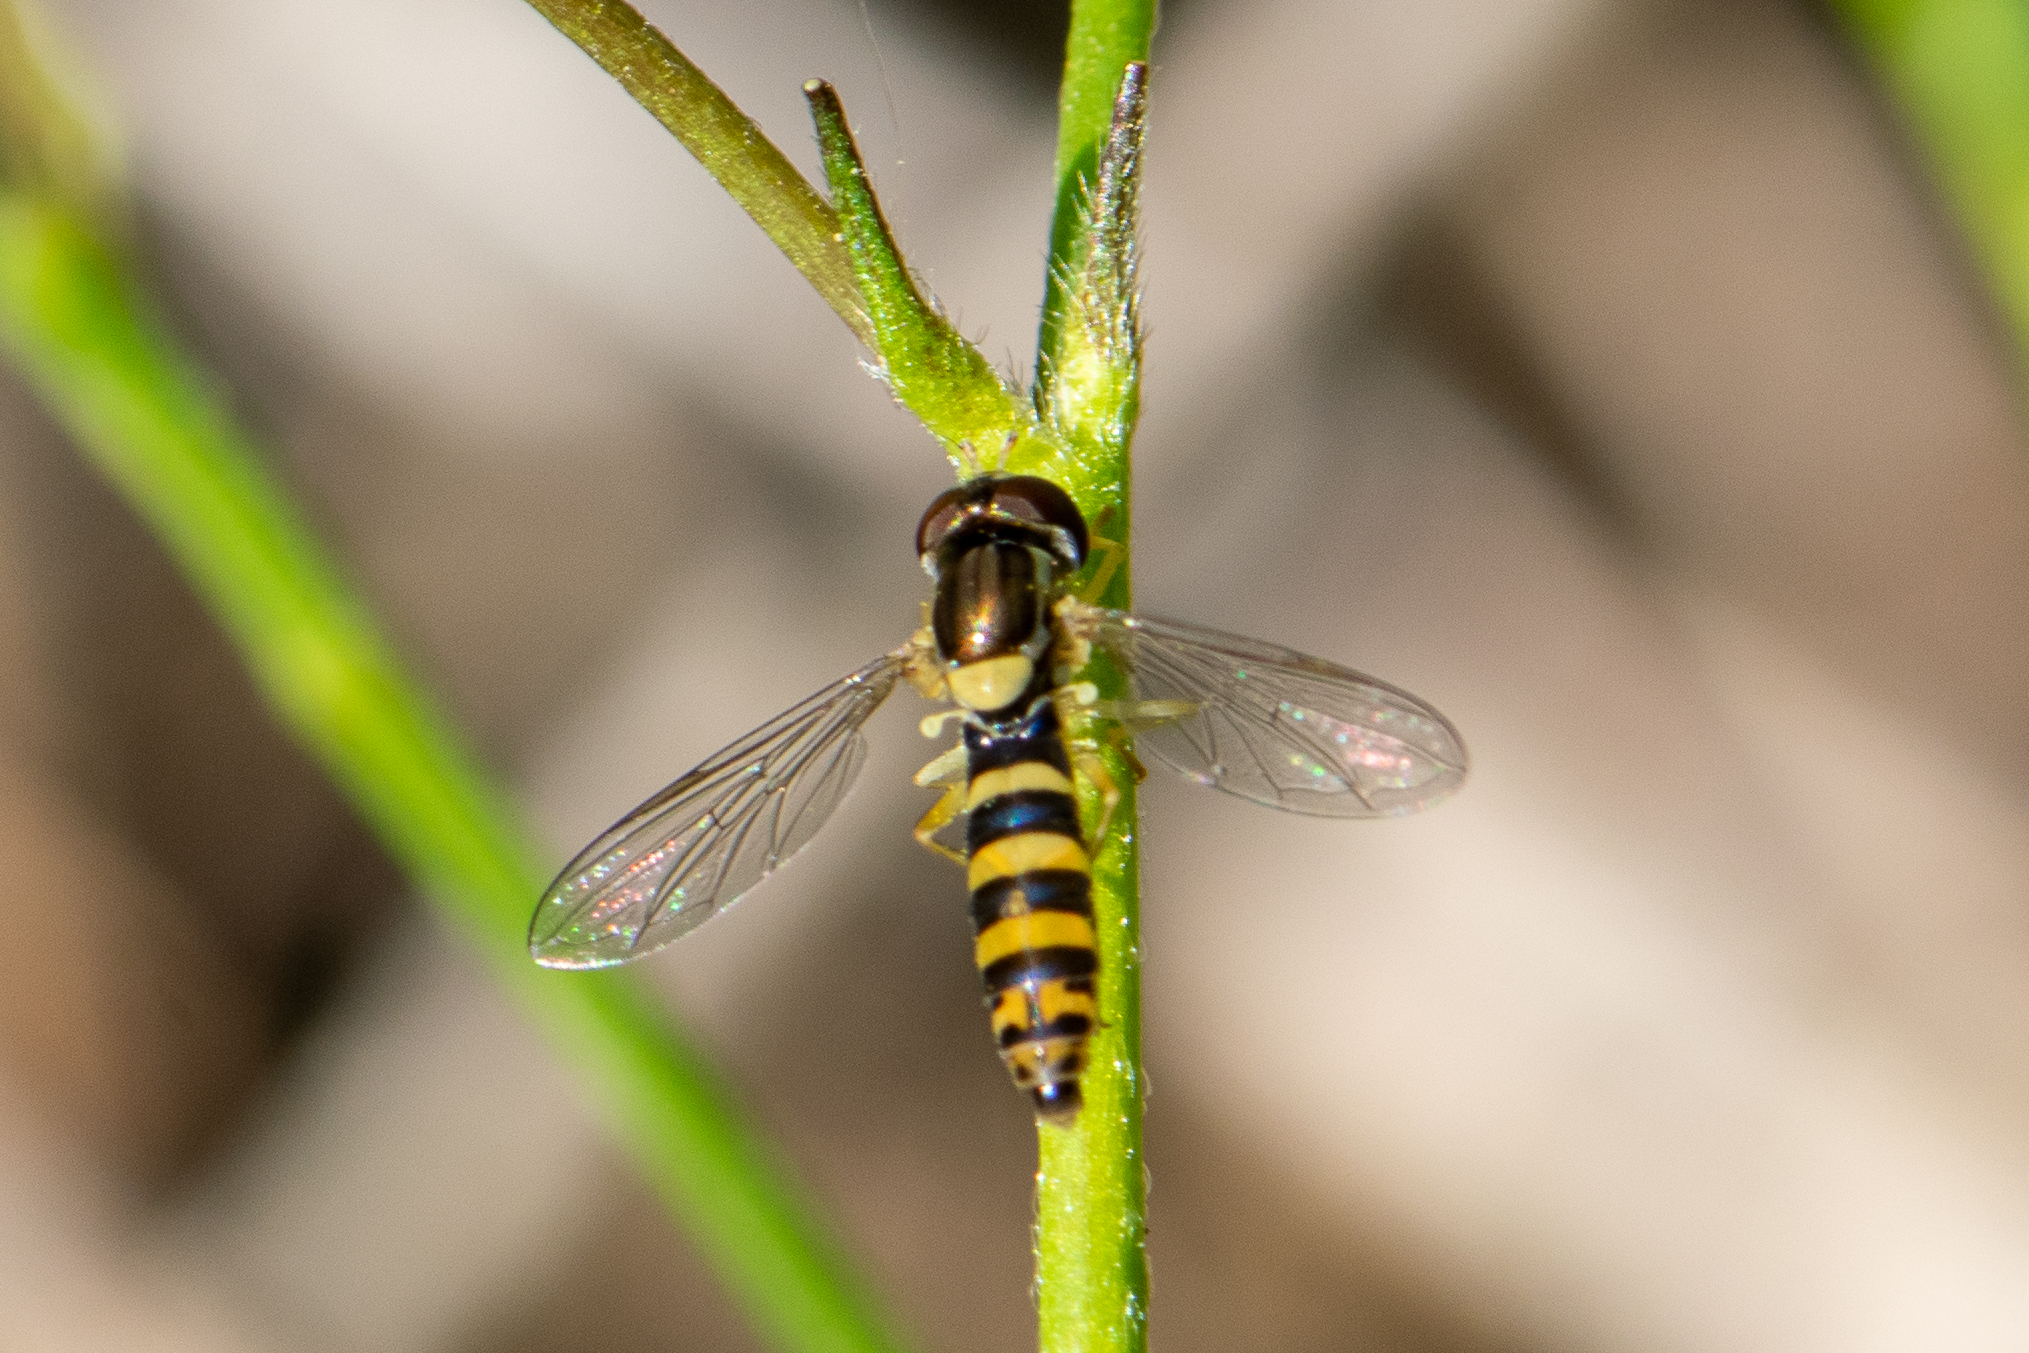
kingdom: Animalia
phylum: Arthropoda
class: Insecta
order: Diptera
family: Syrphidae
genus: Sphaerophoria
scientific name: Sphaerophoria
